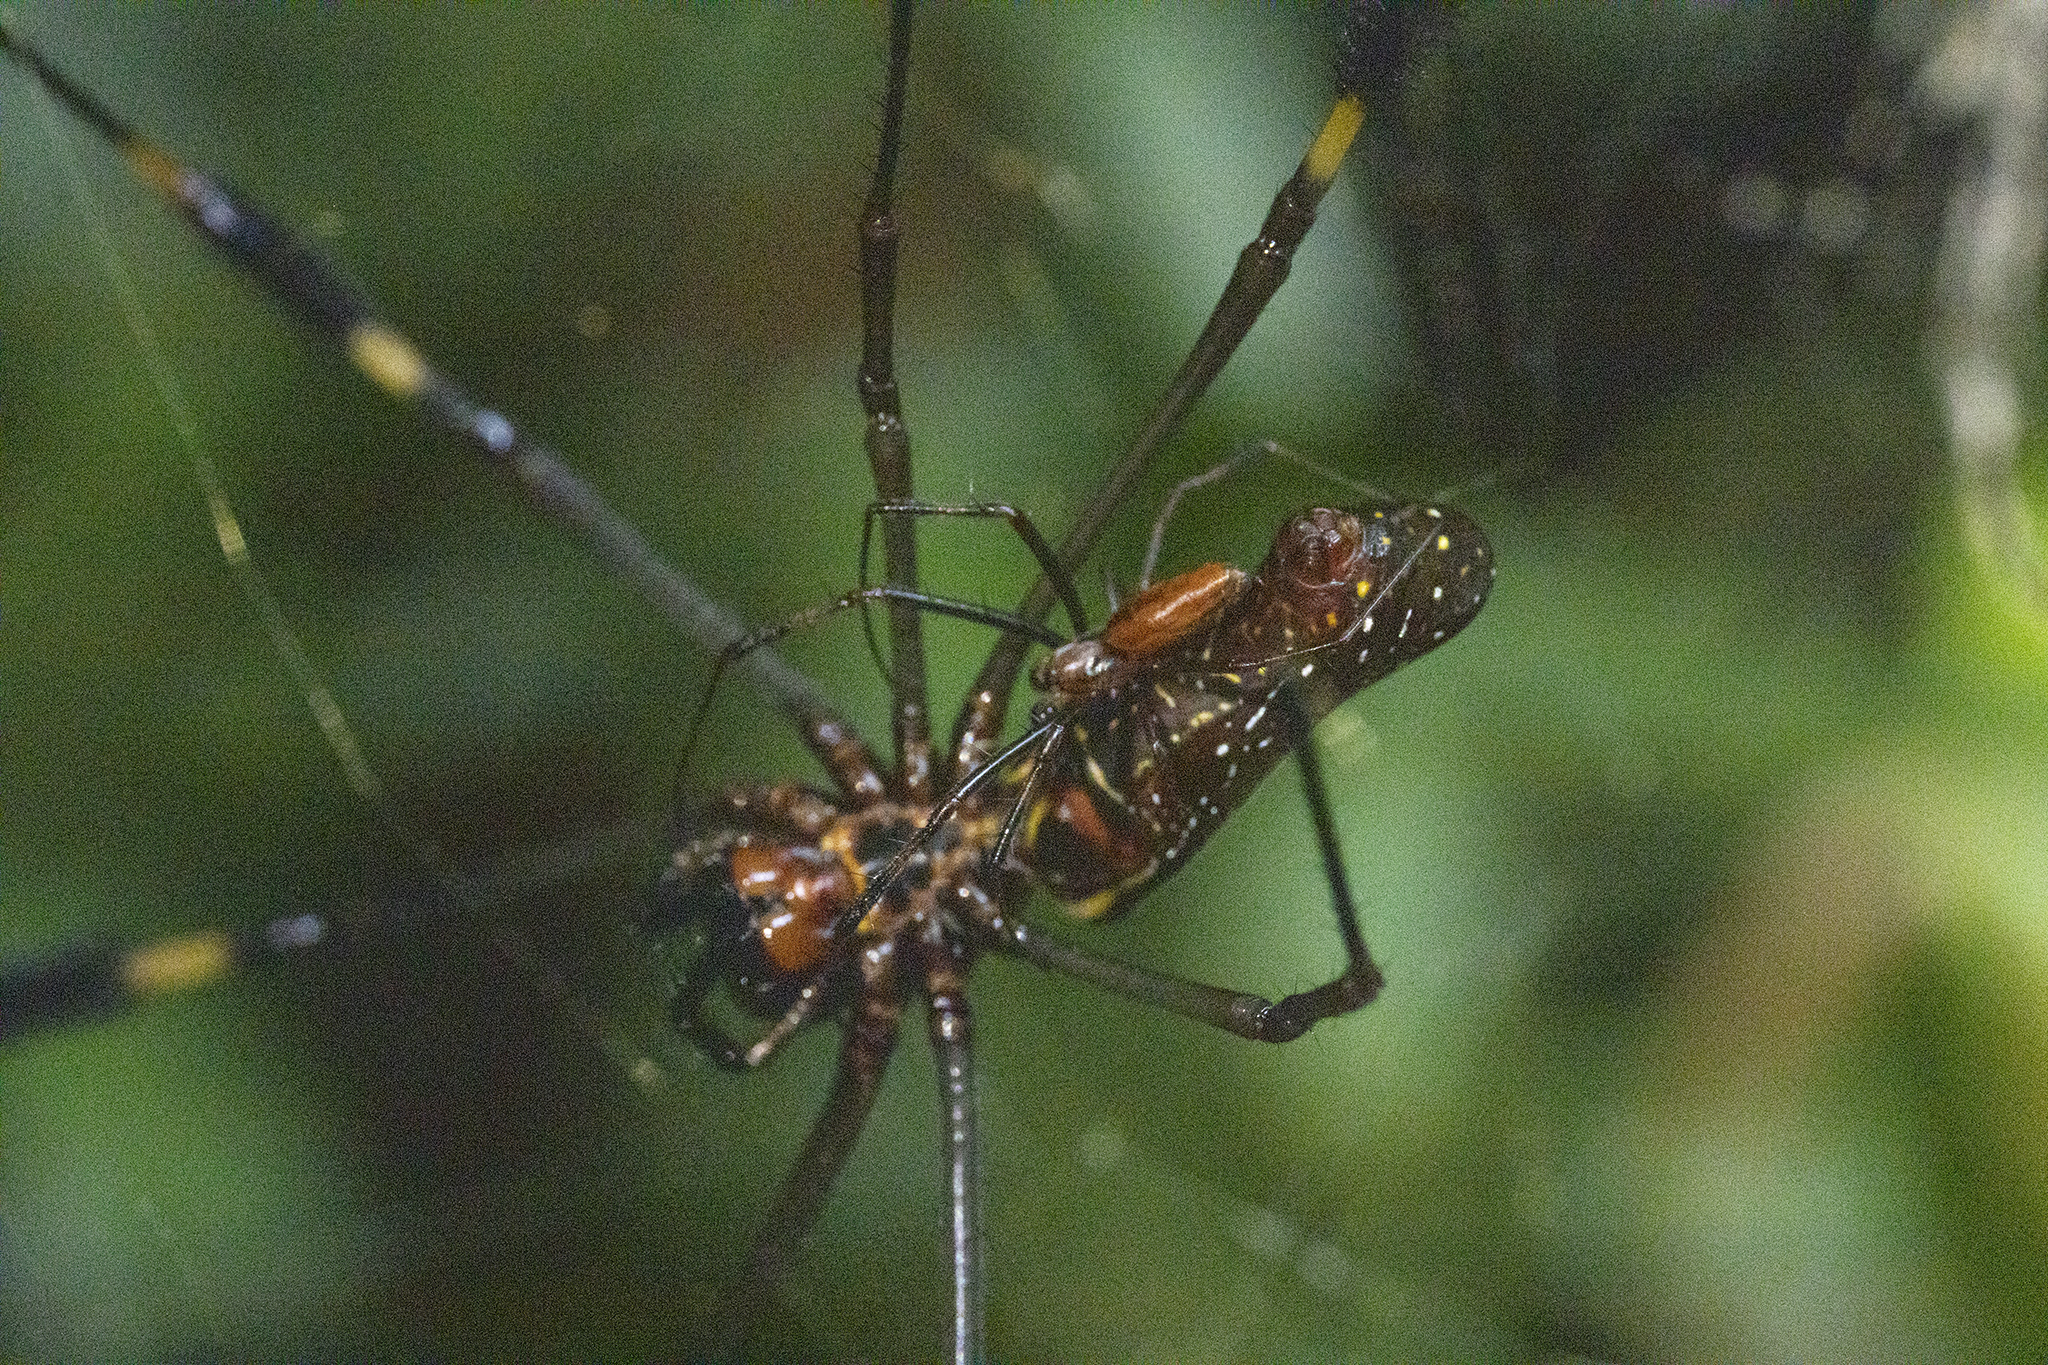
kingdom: Animalia
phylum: Arthropoda
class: Arachnida
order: Araneae
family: Araneidae
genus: Trichonephila
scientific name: Trichonephila clavipes
